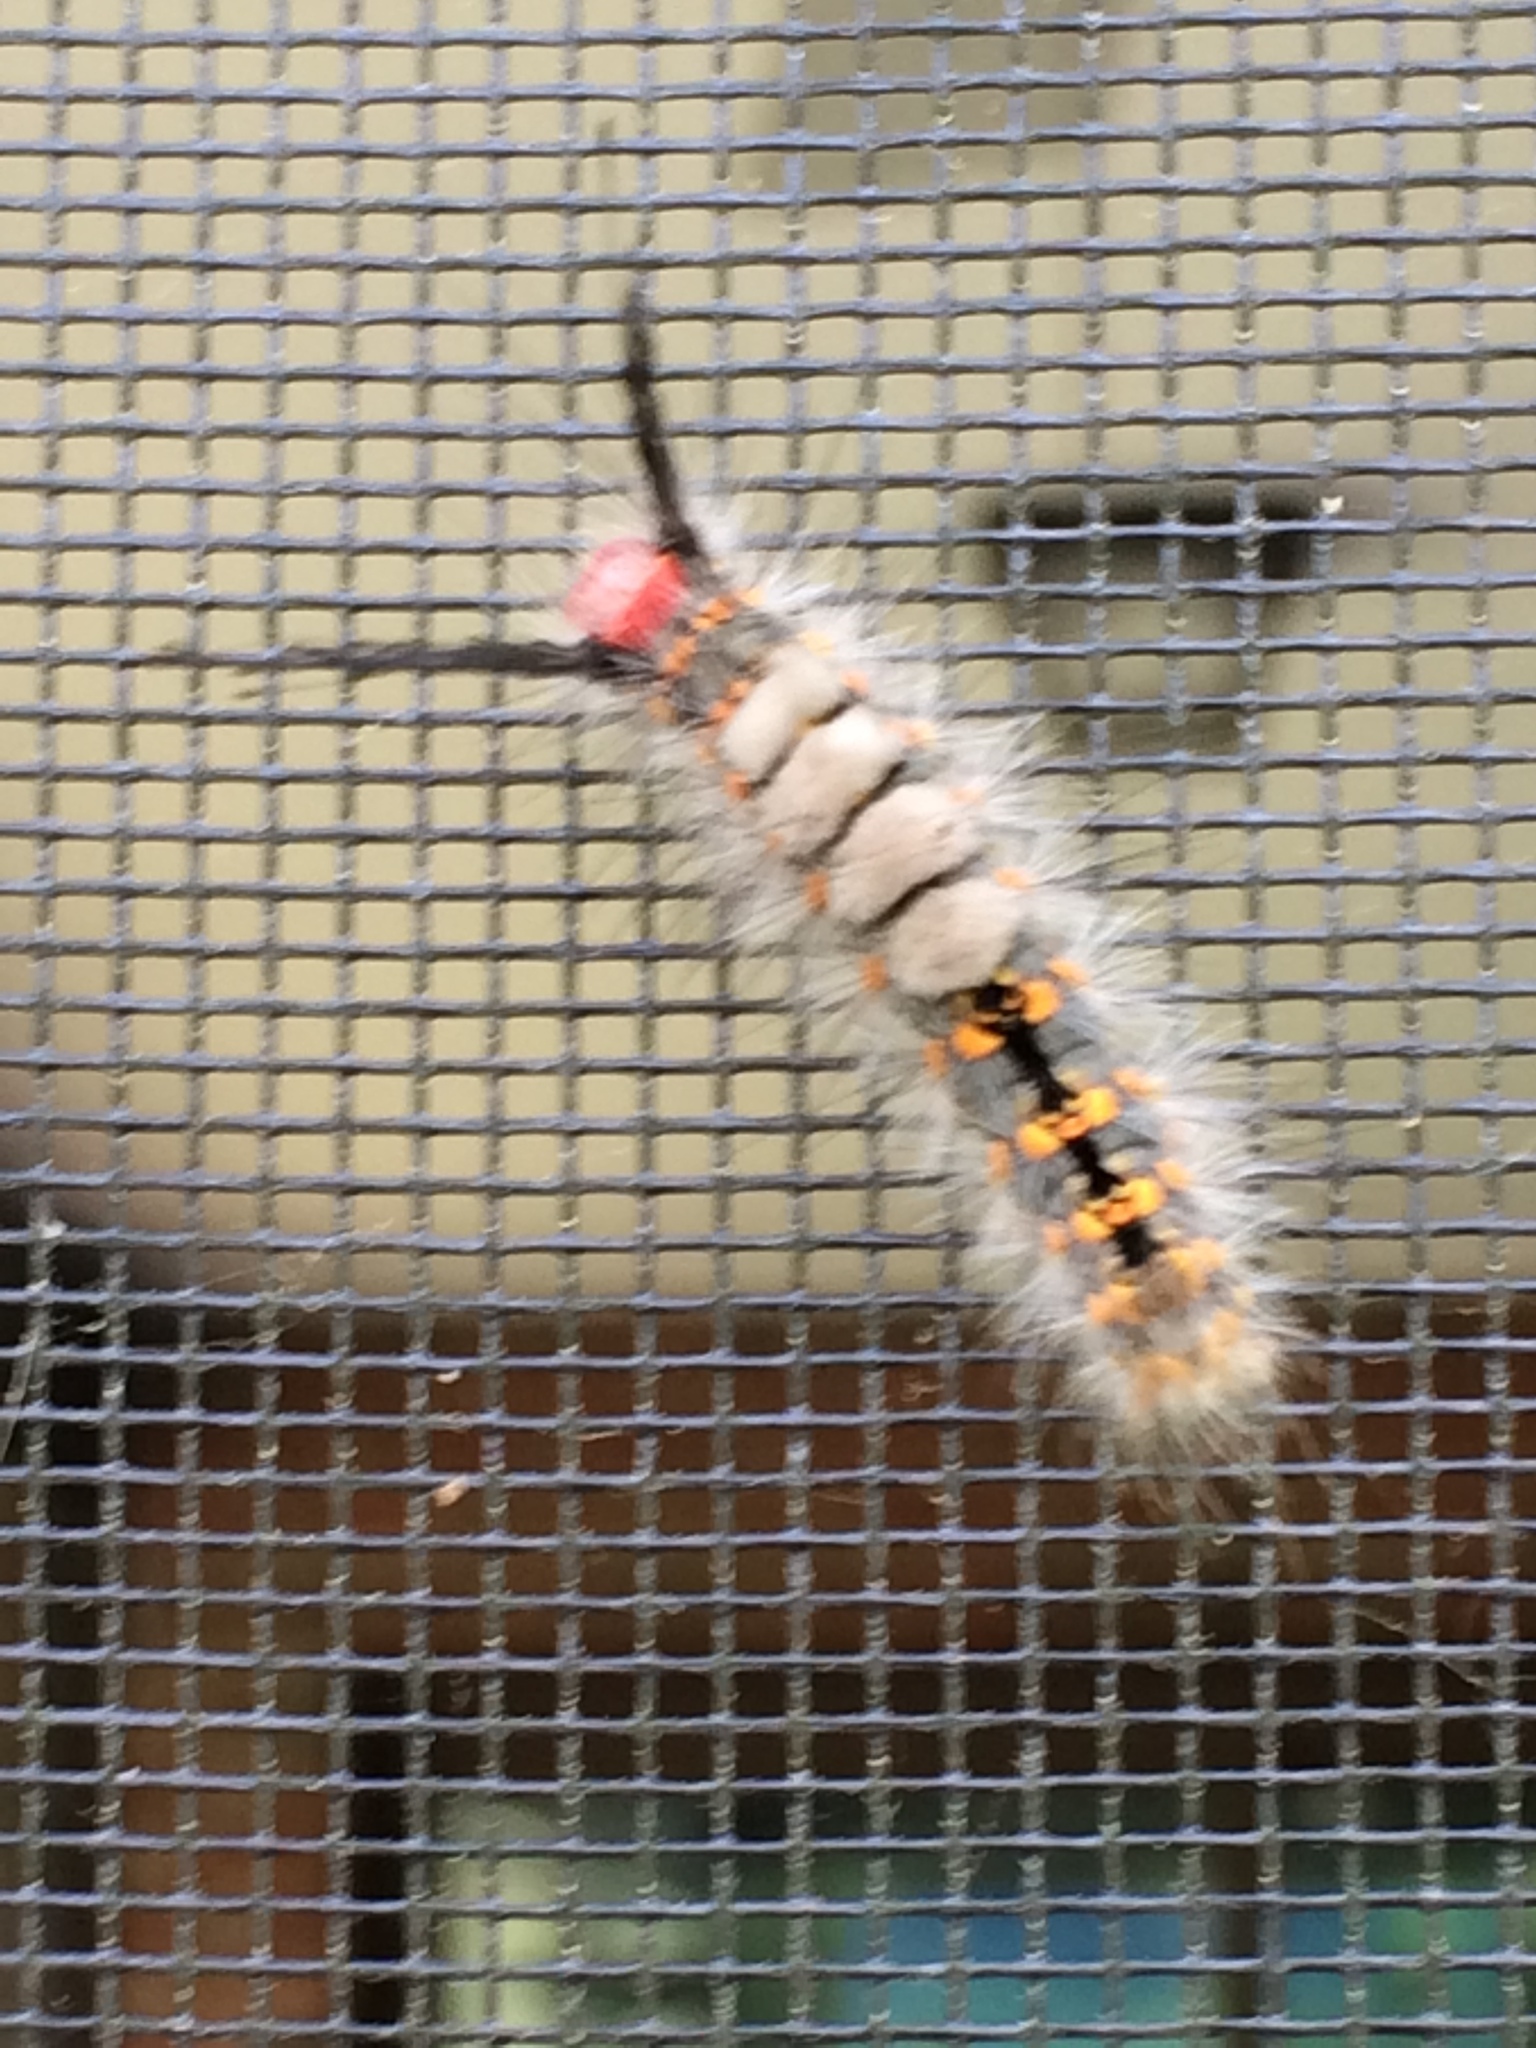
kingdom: Animalia
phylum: Arthropoda
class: Insecta
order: Lepidoptera
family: Erebidae
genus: Orgyia
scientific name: Orgyia detrita
